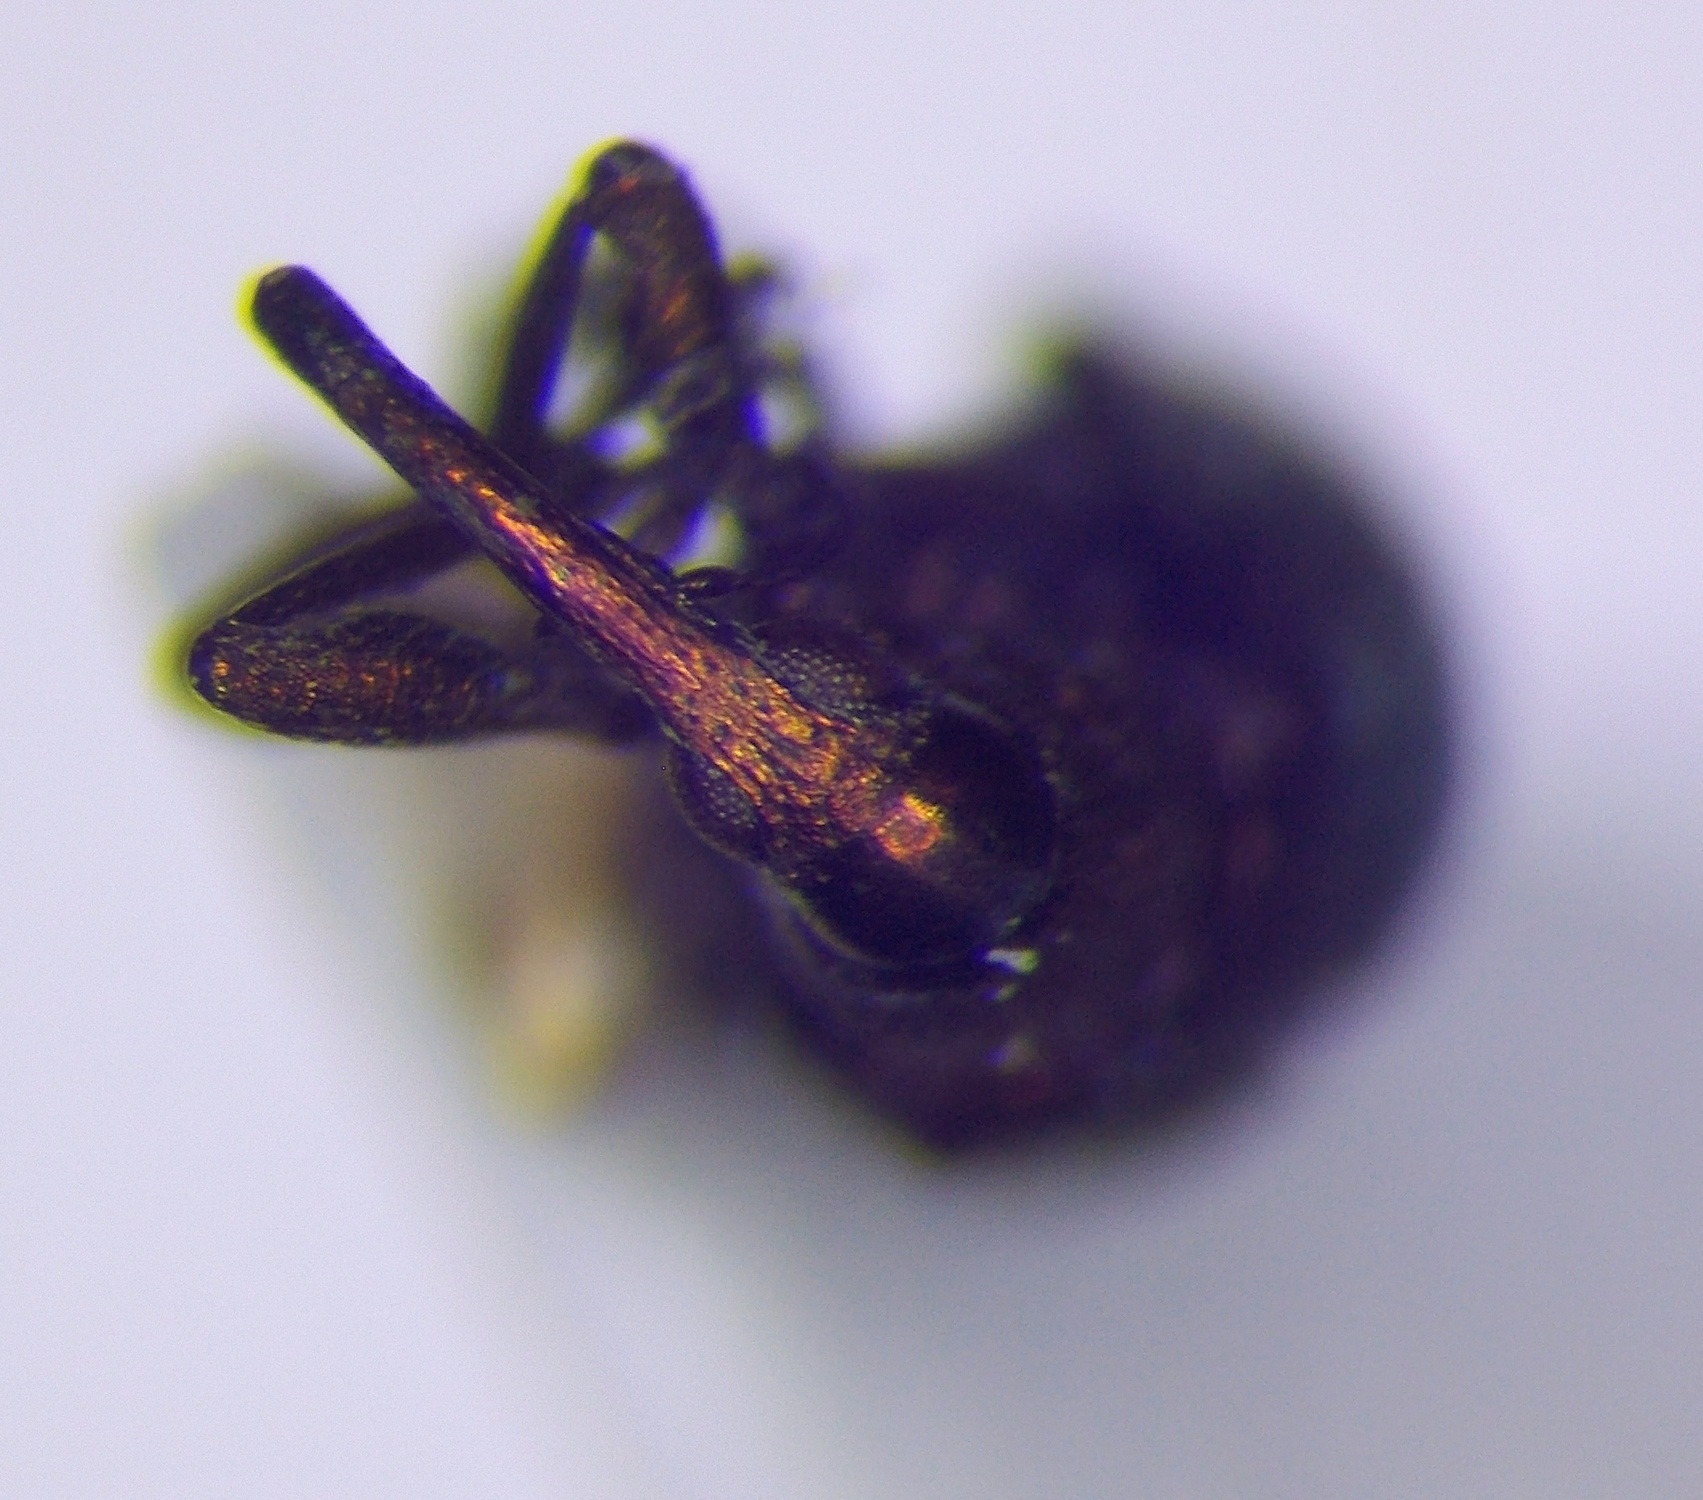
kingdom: Animalia
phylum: Arthropoda
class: Insecta
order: Coleoptera
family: Apionidae
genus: Pseudoprotapion
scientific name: Pseudoprotapion ergenense
